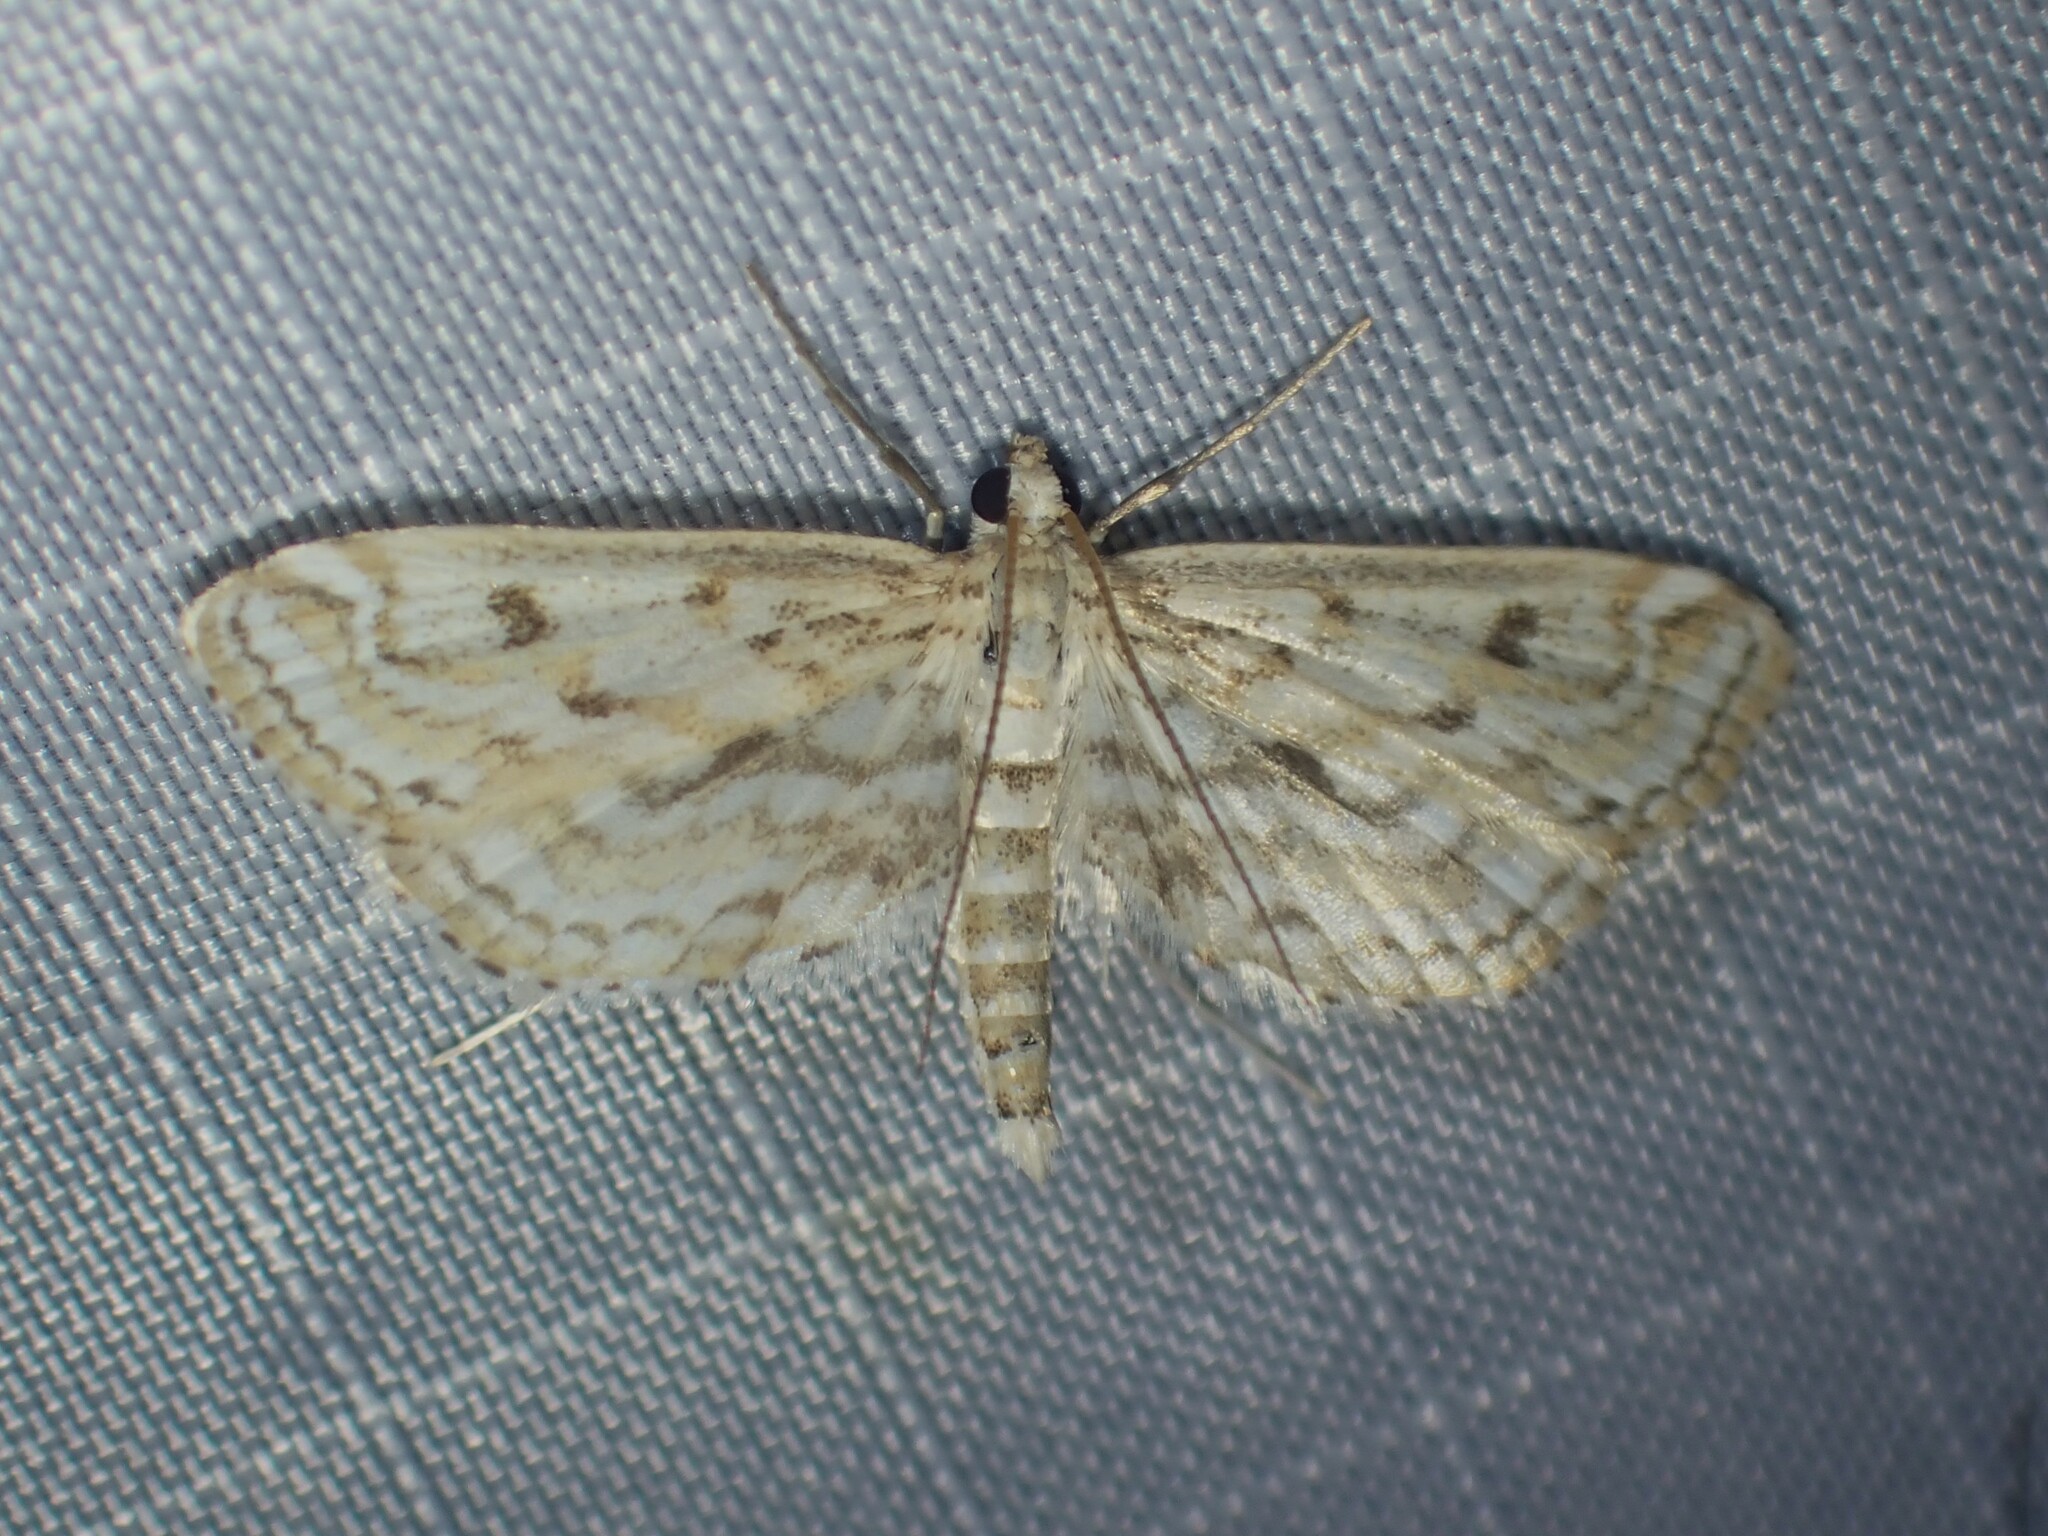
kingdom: Animalia
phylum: Arthropoda
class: Insecta
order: Lepidoptera
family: Crambidae
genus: Parapoynx
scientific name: Parapoynx allionealis
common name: Bladderwort casemaker
